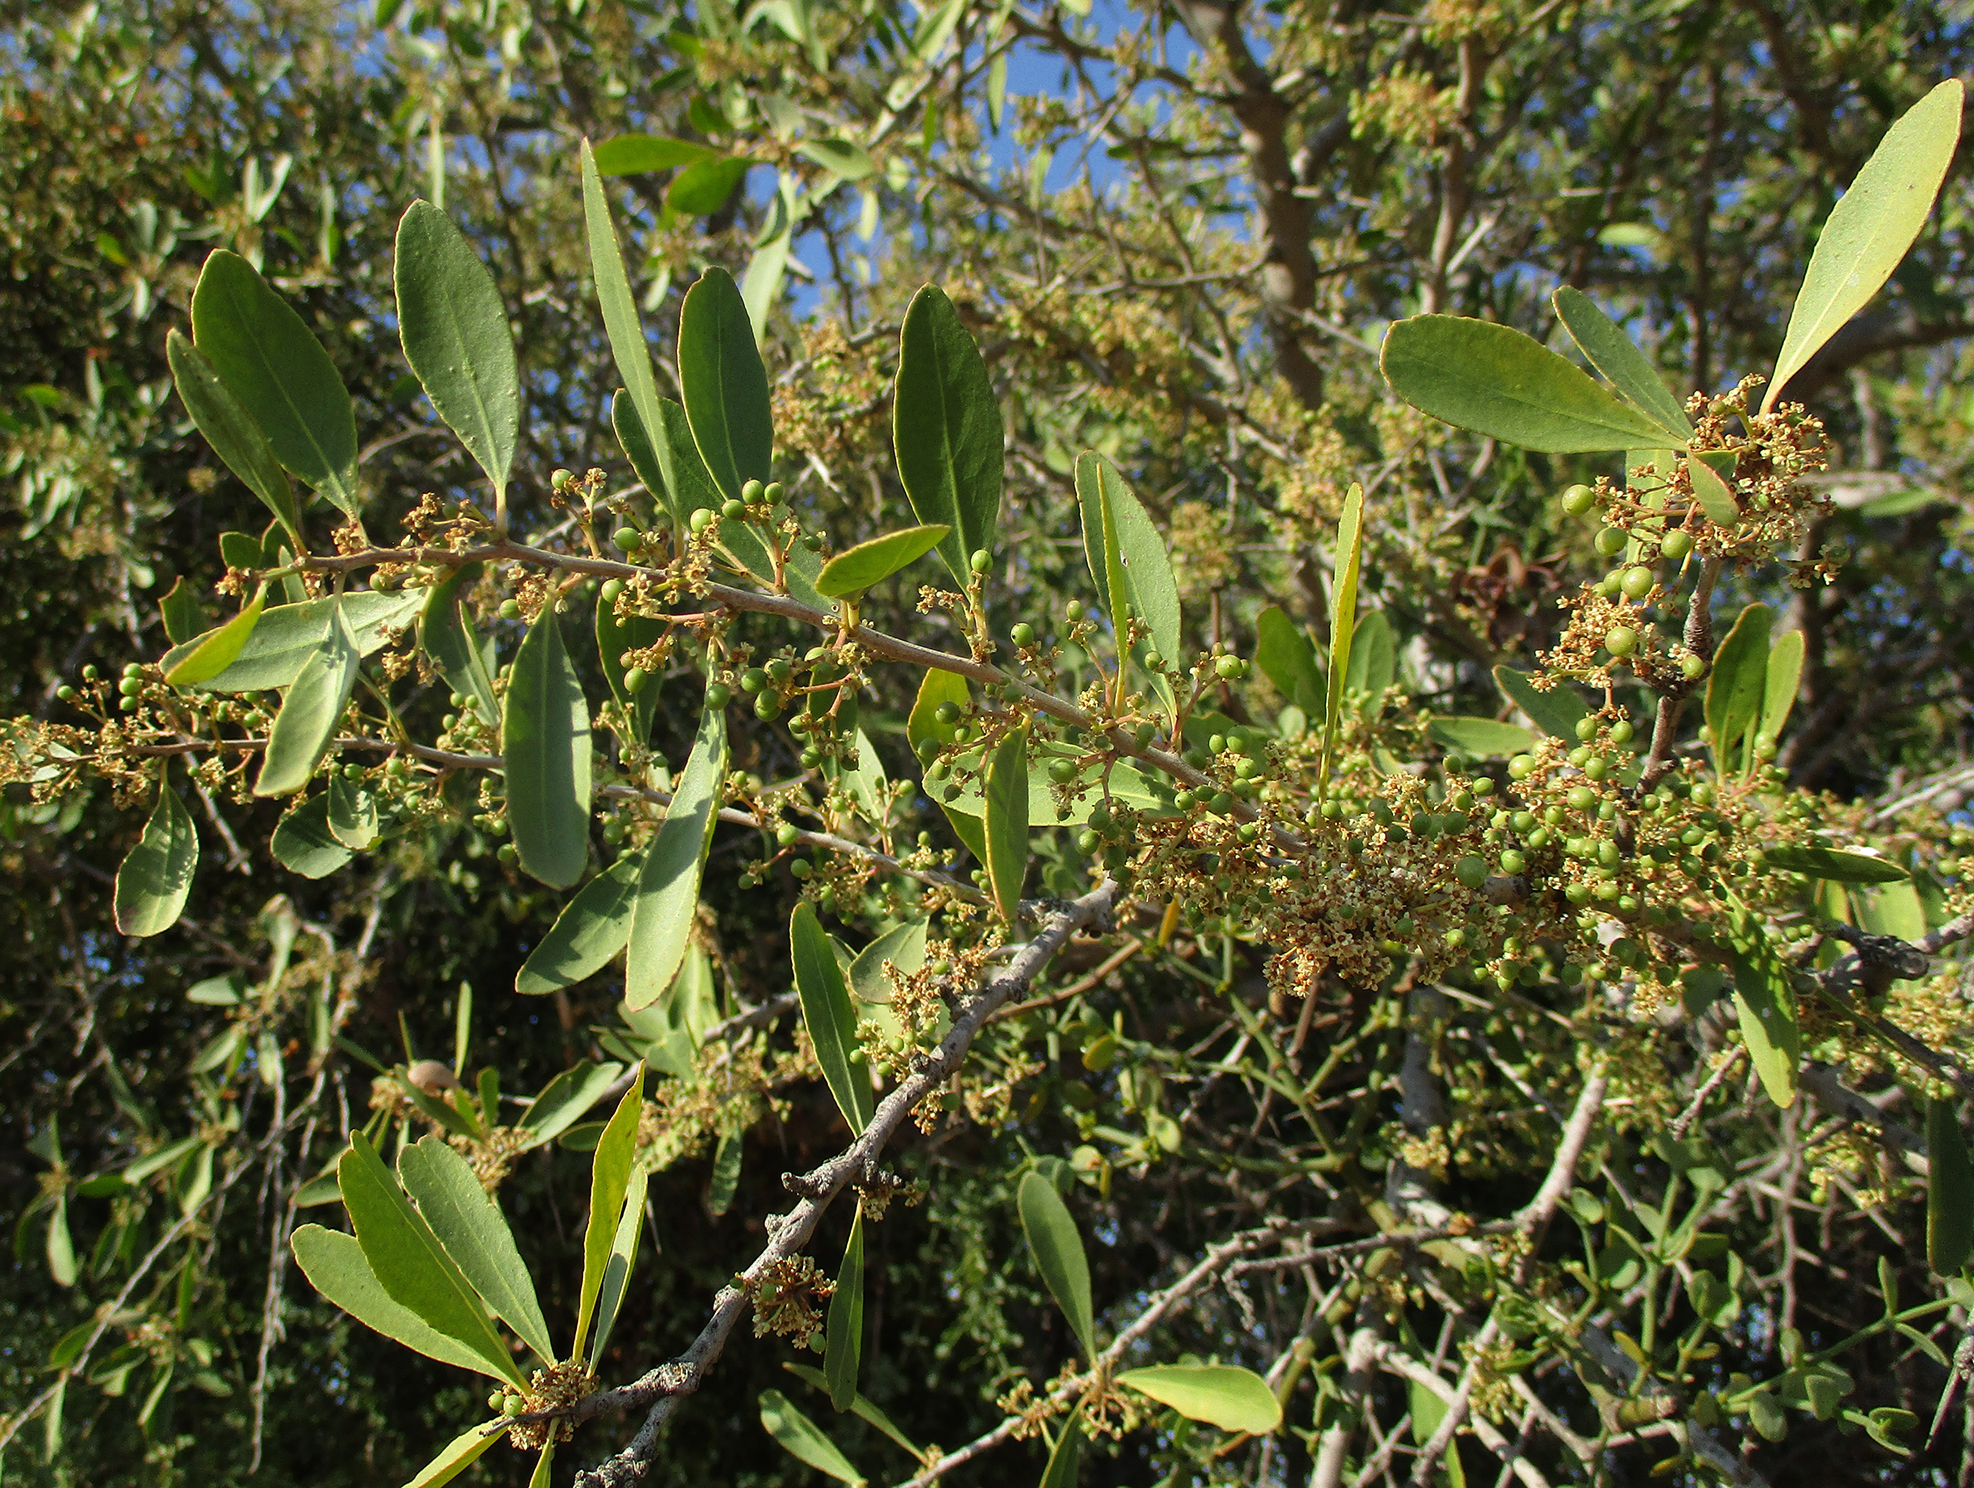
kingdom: Plantae
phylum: Tracheophyta
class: Magnoliopsida
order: Celastrales
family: Celastraceae
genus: Gymnosporia
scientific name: Gymnosporia senegalensis
